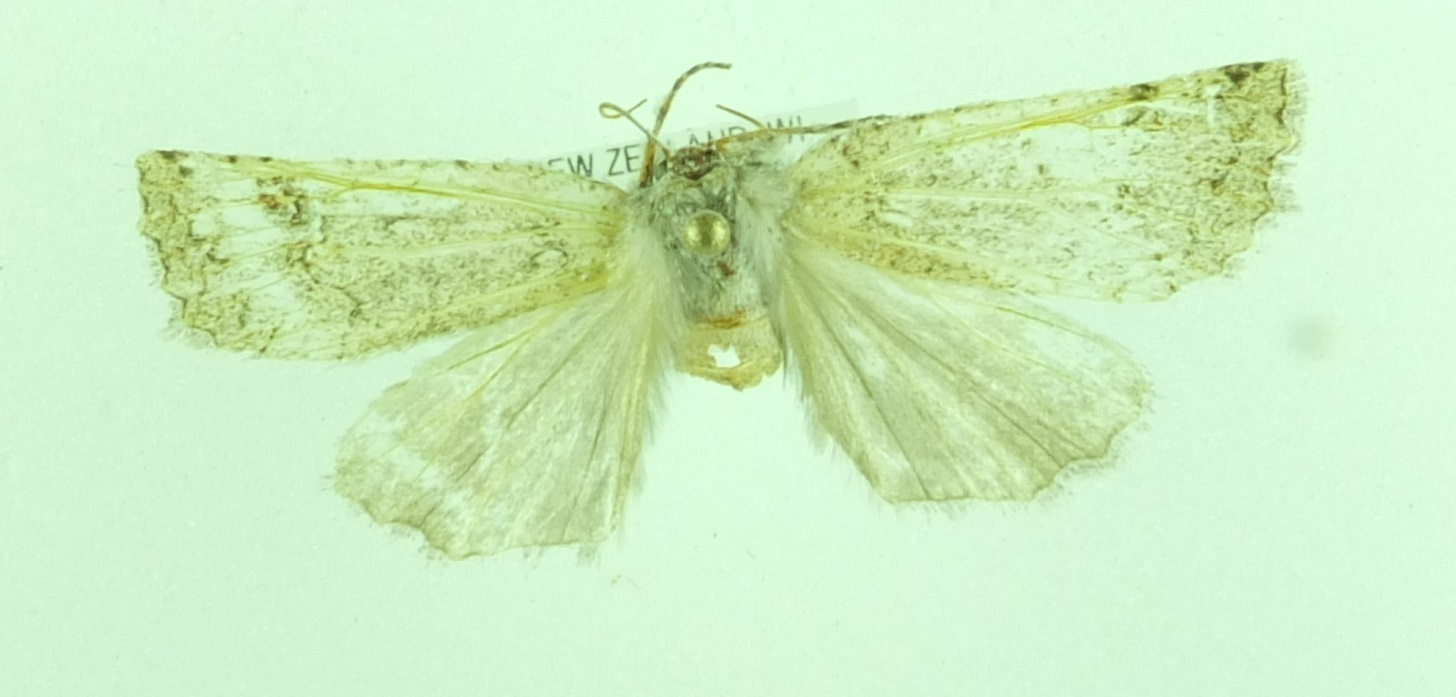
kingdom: Animalia
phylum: Arthropoda
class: Insecta
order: Lepidoptera
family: Geometridae
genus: Declana
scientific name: Declana floccosa
